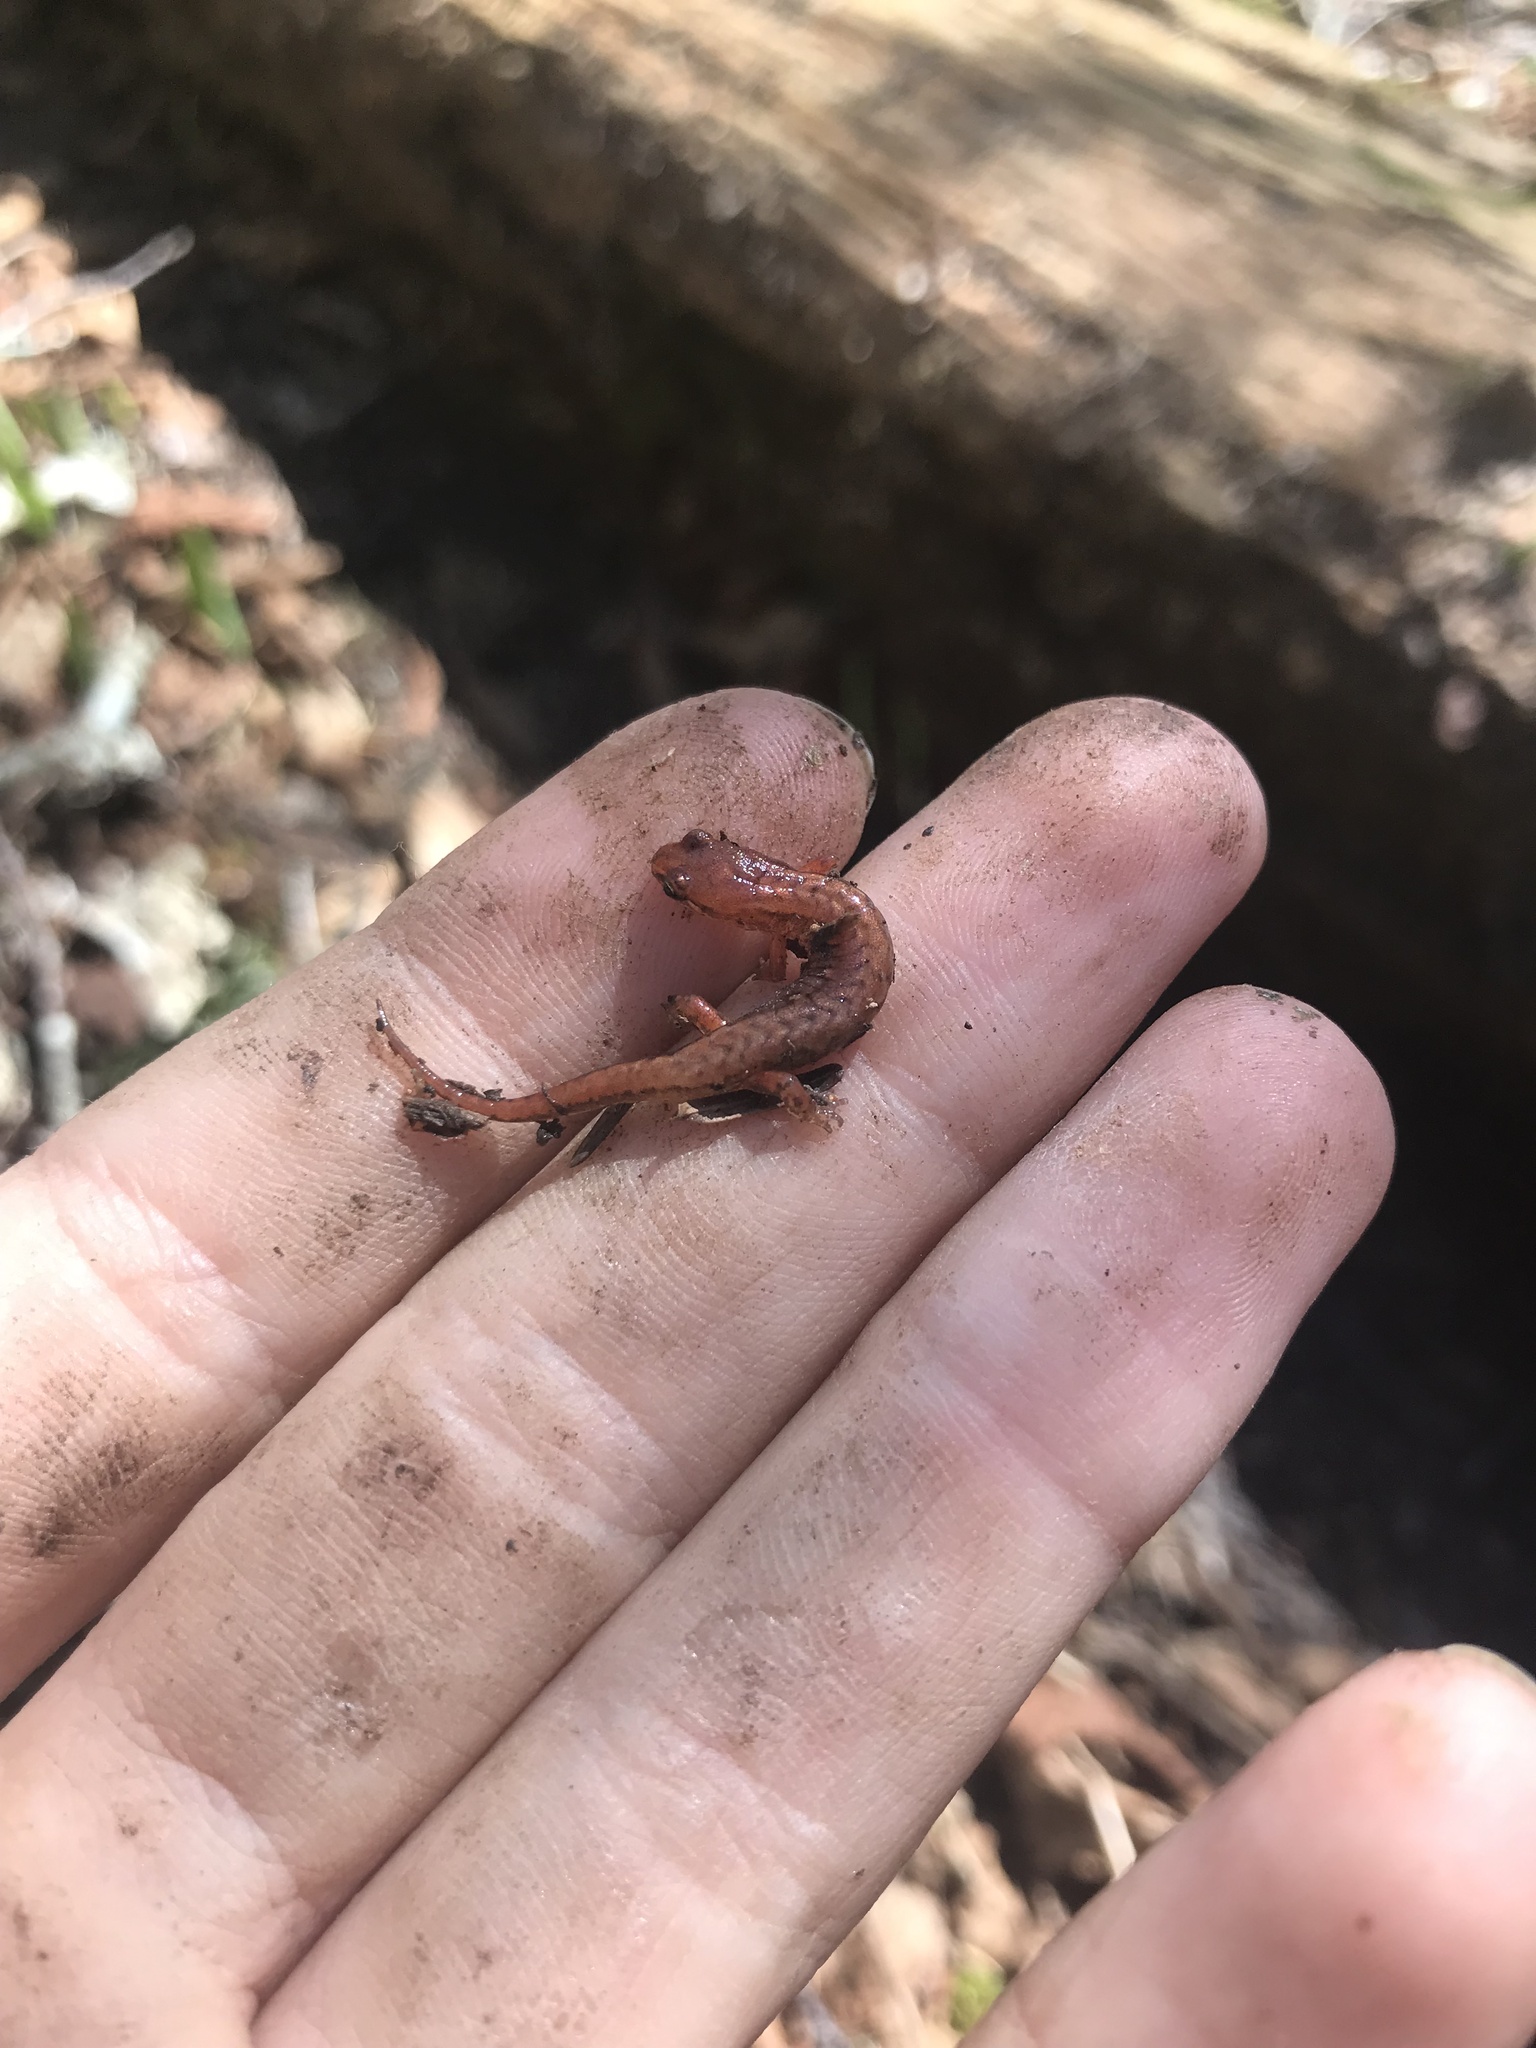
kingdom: Animalia
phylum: Chordata
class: Amphibia
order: Caudata
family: Plethodontidae
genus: Desmognathus
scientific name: Desmognathus wrighti
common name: Pygmy salamander
